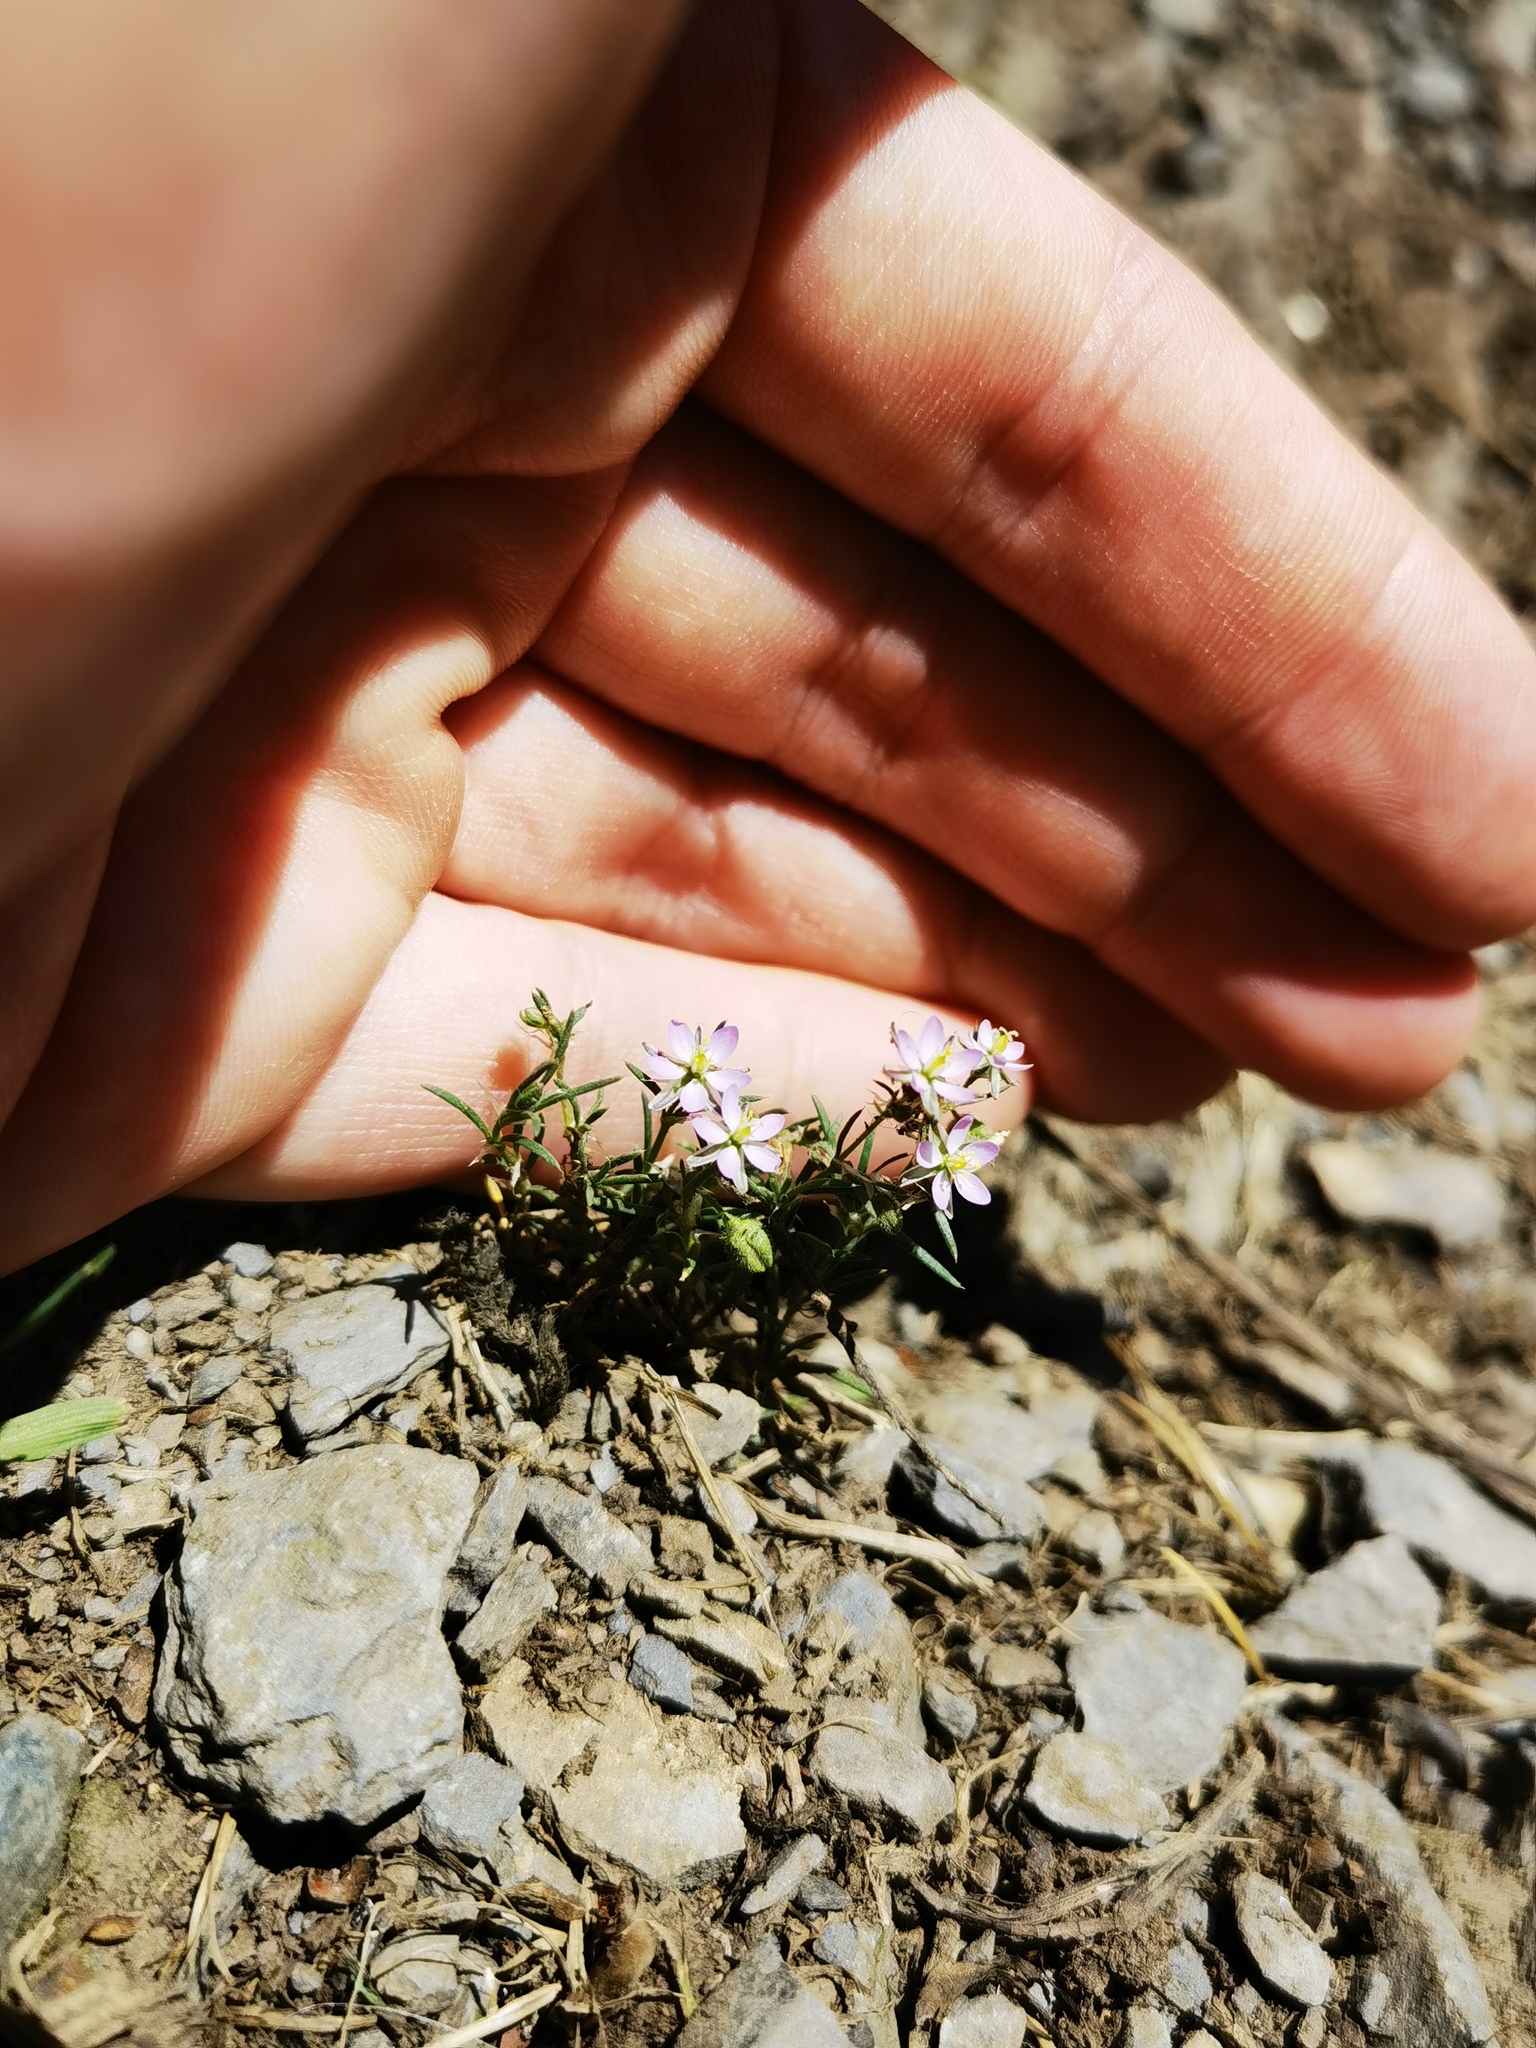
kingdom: Plantae
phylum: Tracheophyta
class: Magnoliopsida
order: Caryophyllales
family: Caryophyllaceae
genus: Spergularia
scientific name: Spergularia rubra
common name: Red sand-spurrey
